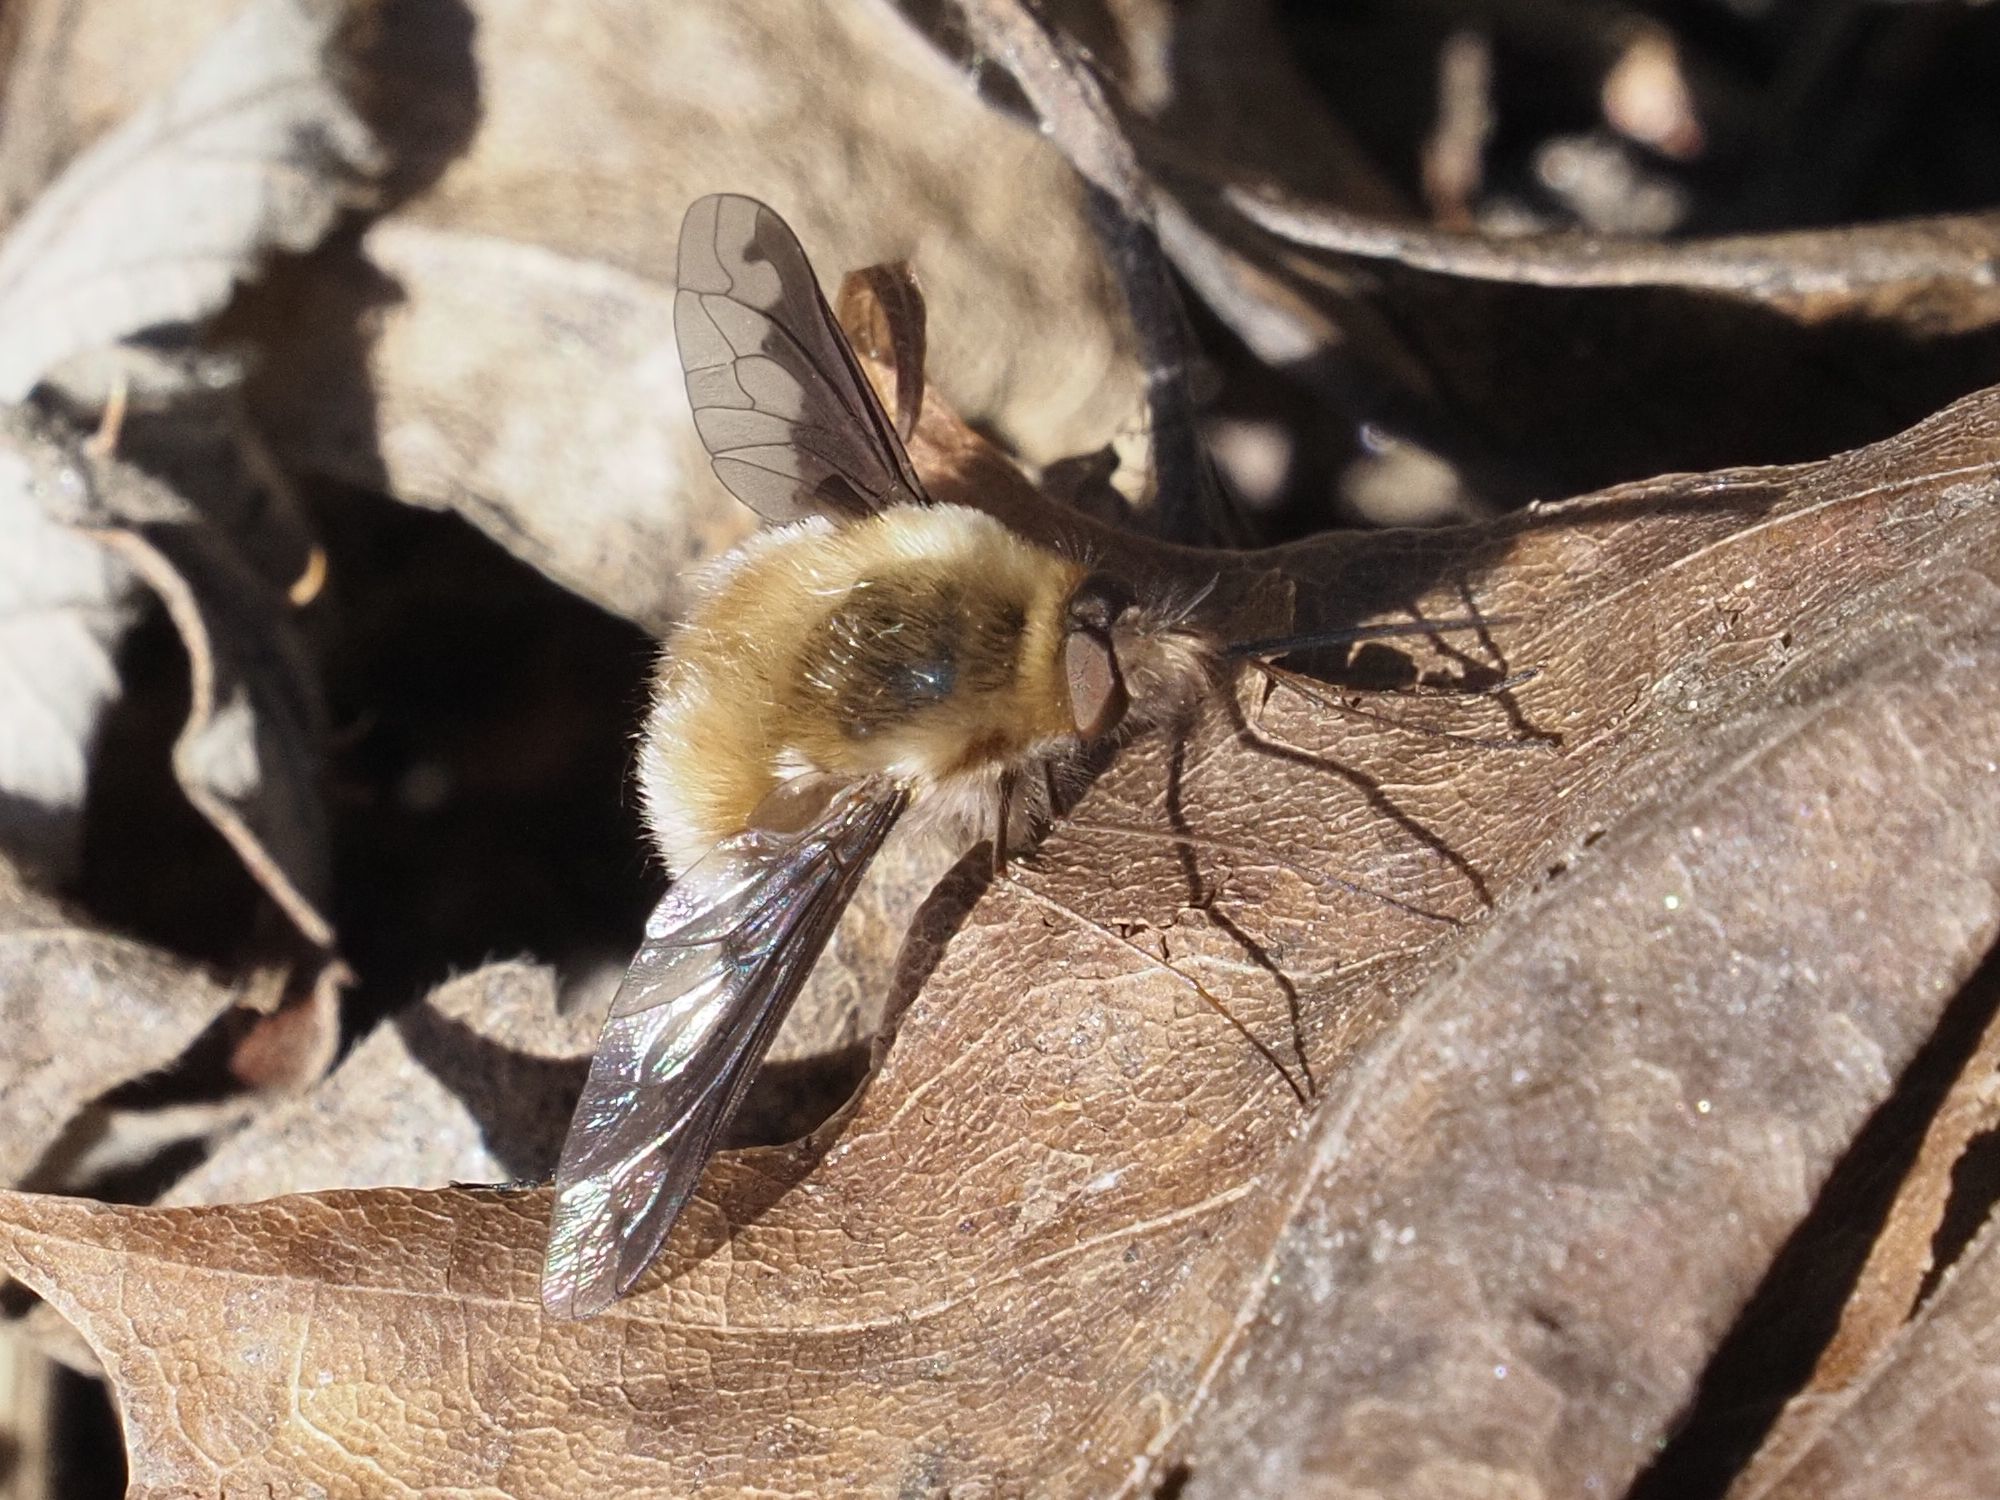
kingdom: Animalia
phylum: Arthropoda
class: Insecta
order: Diptera
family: Bombyliidae
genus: Bombylius
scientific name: Bombylius major
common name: Bee fly
